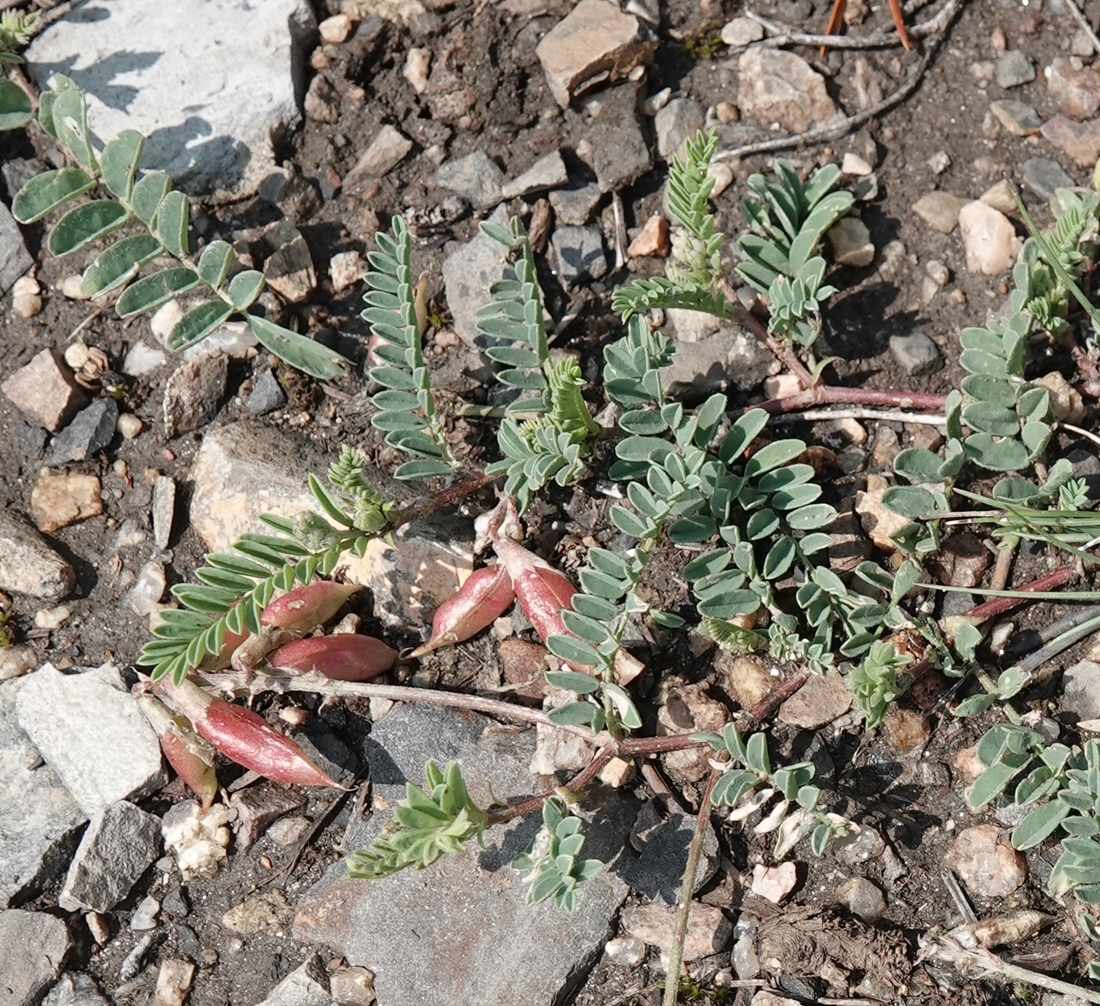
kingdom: Plantae
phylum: Tracheophyta
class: Magnoliopsida
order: Fabales
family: Fabaceae
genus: Astragalus
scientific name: Astragalus hallii
